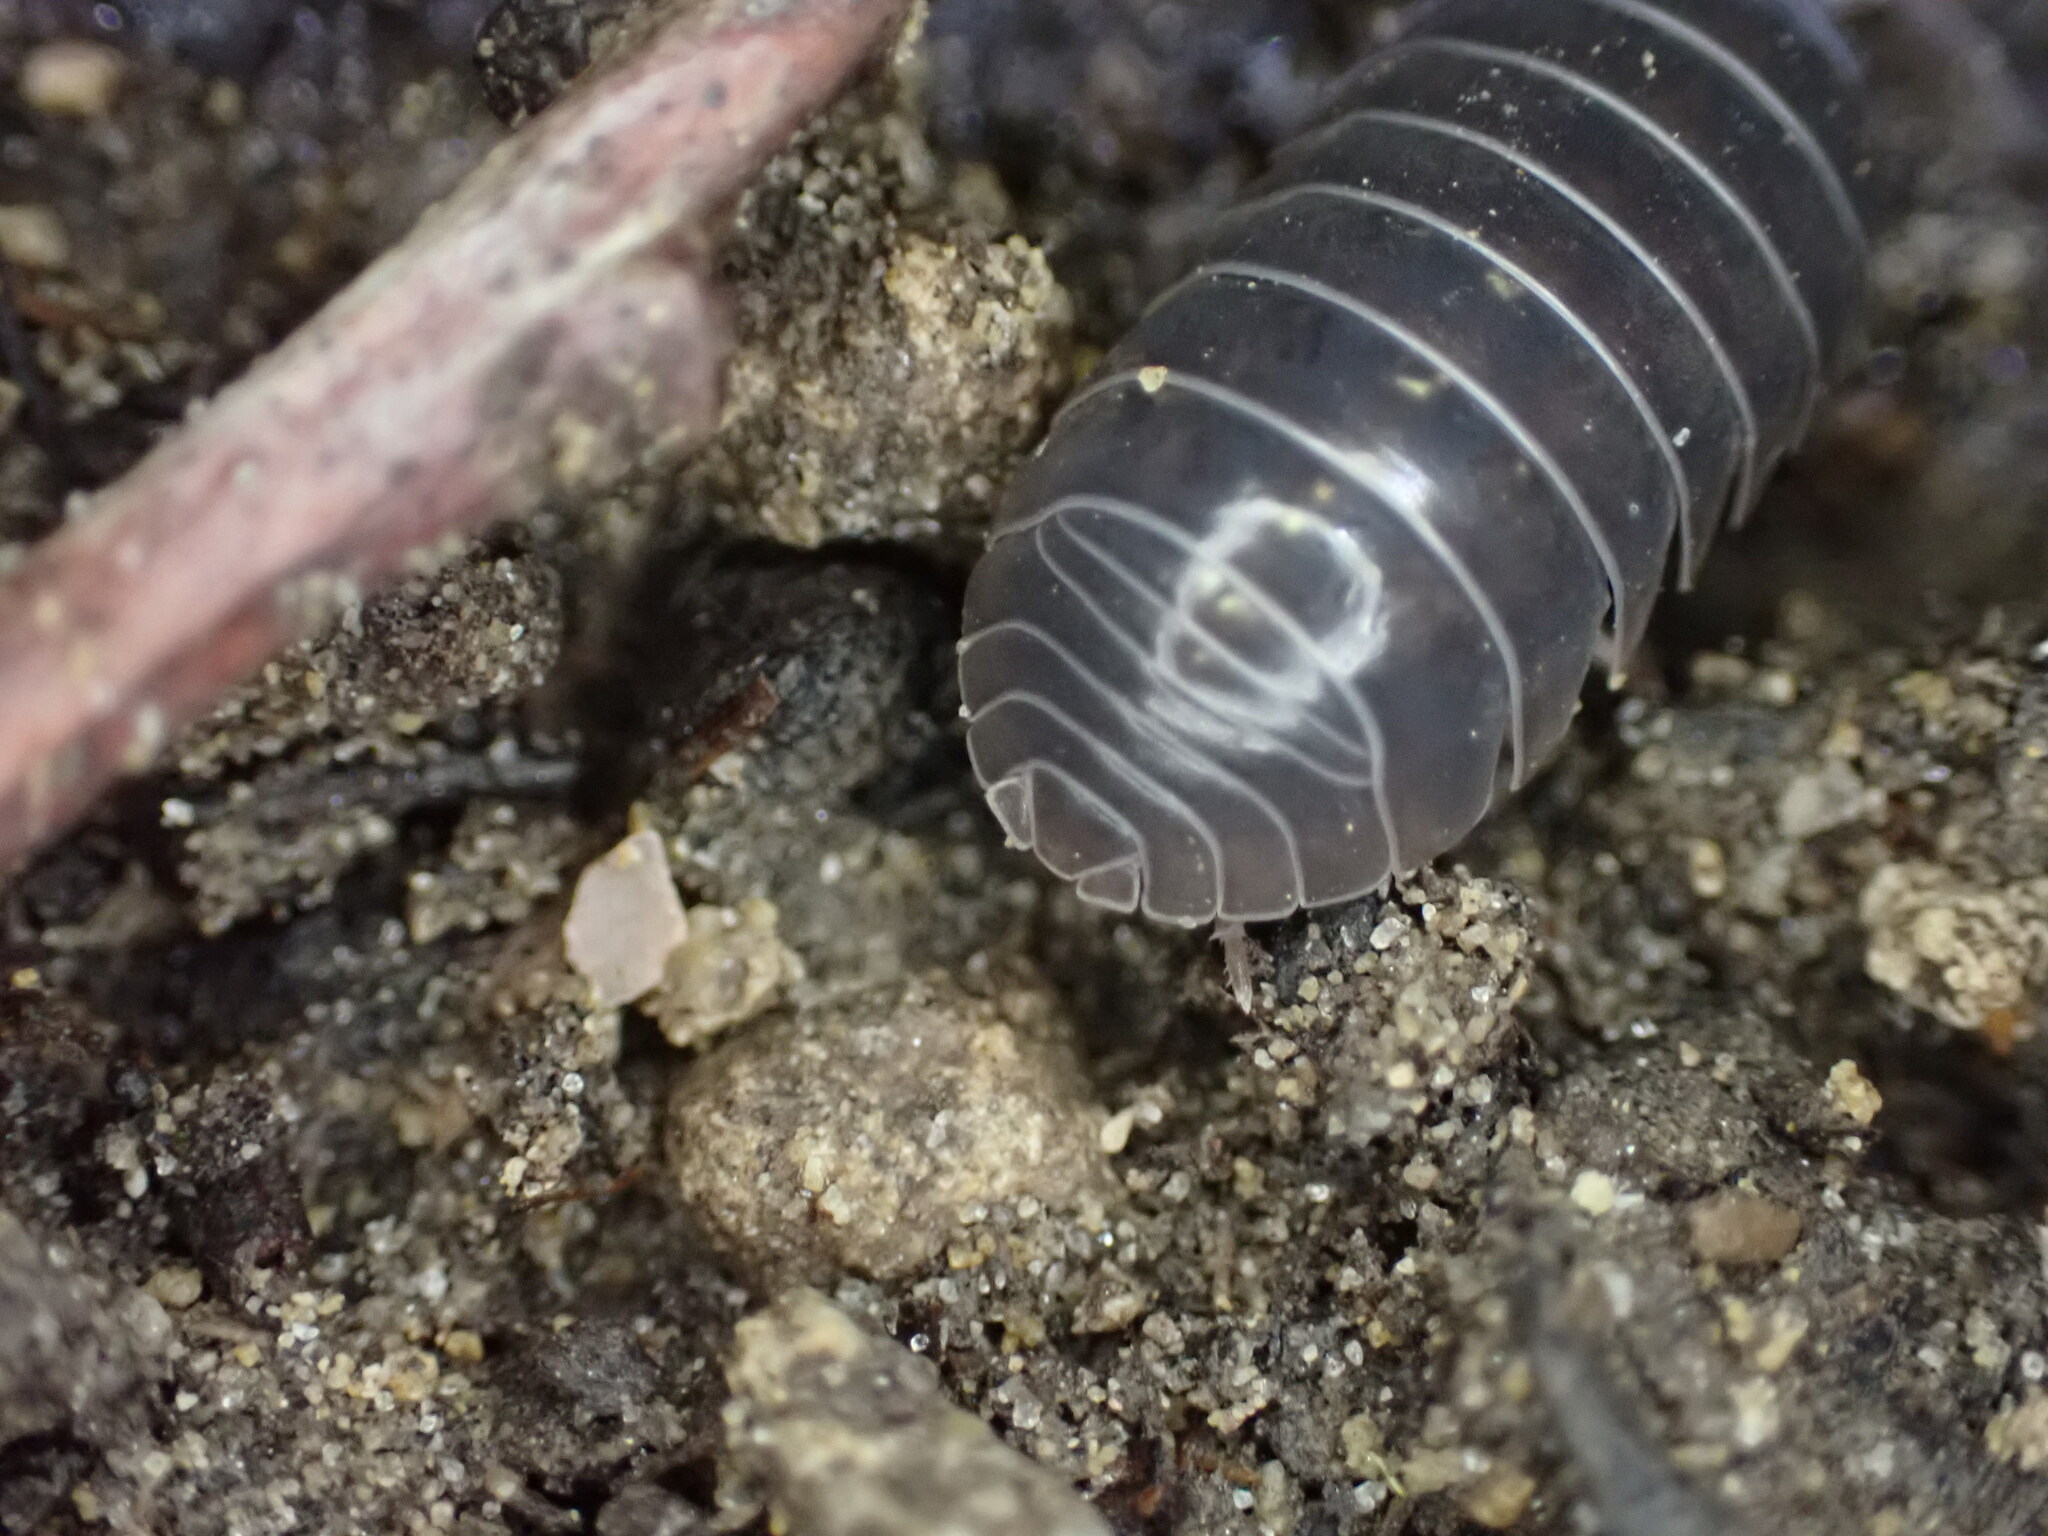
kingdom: Animalia
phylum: Arthropoda
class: Malacostraca
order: Isopoda
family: Armadillidiidae
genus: Armadillidium
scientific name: Armadillidium vulgare
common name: Common pill woodlouse
